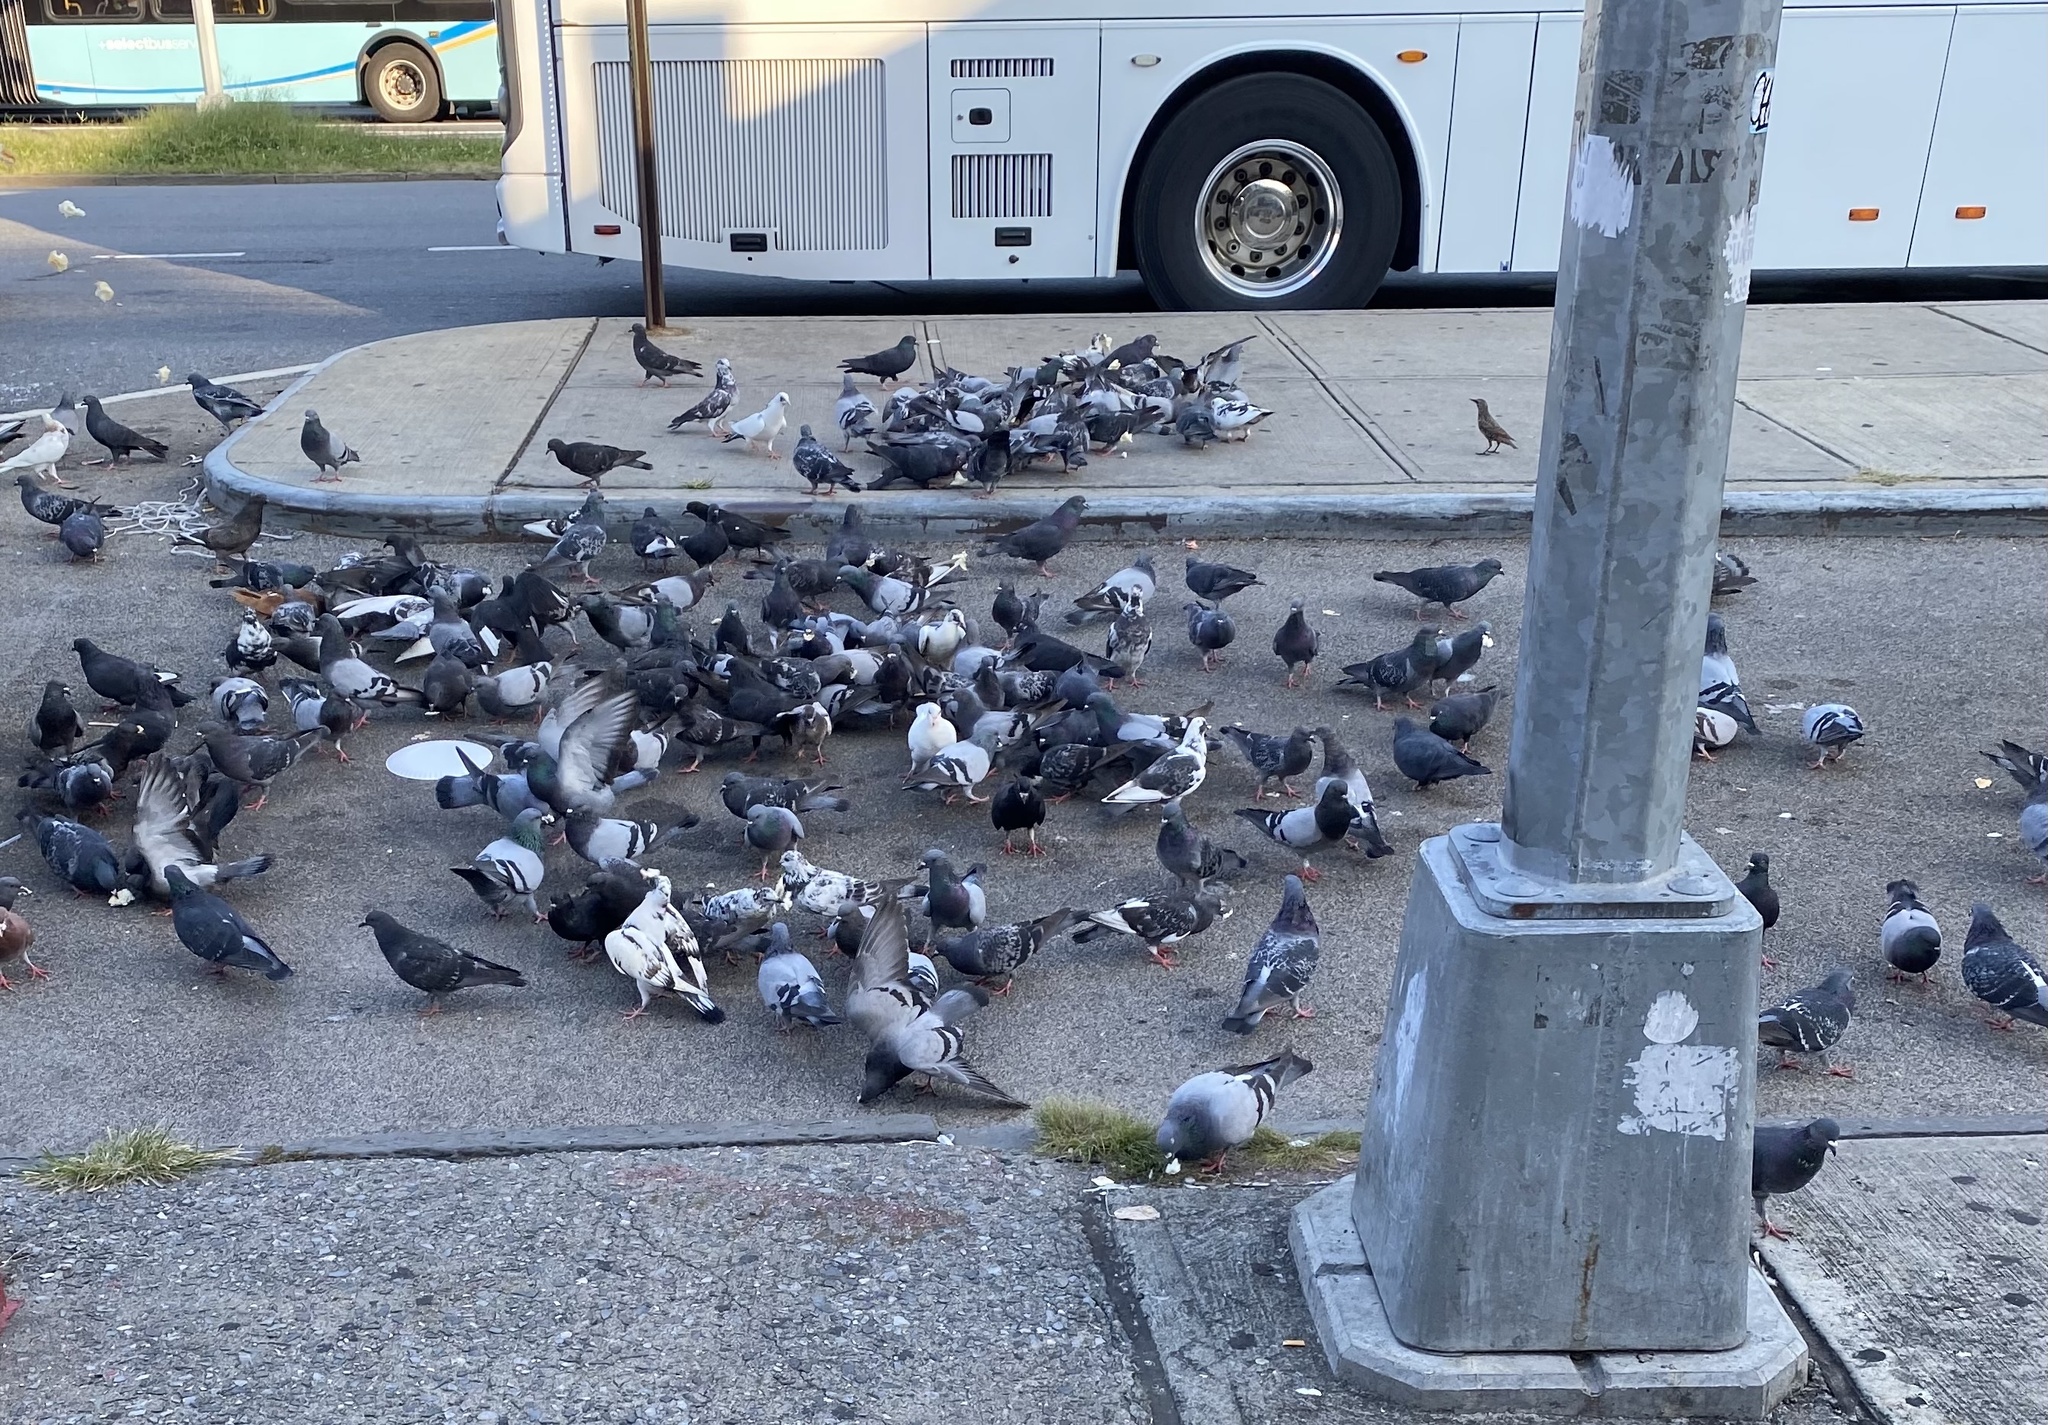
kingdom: Animalia
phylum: Chordata
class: Aves
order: Columbiformes
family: Columbidae
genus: Columba
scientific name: Columba livia
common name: Rock pigeon
